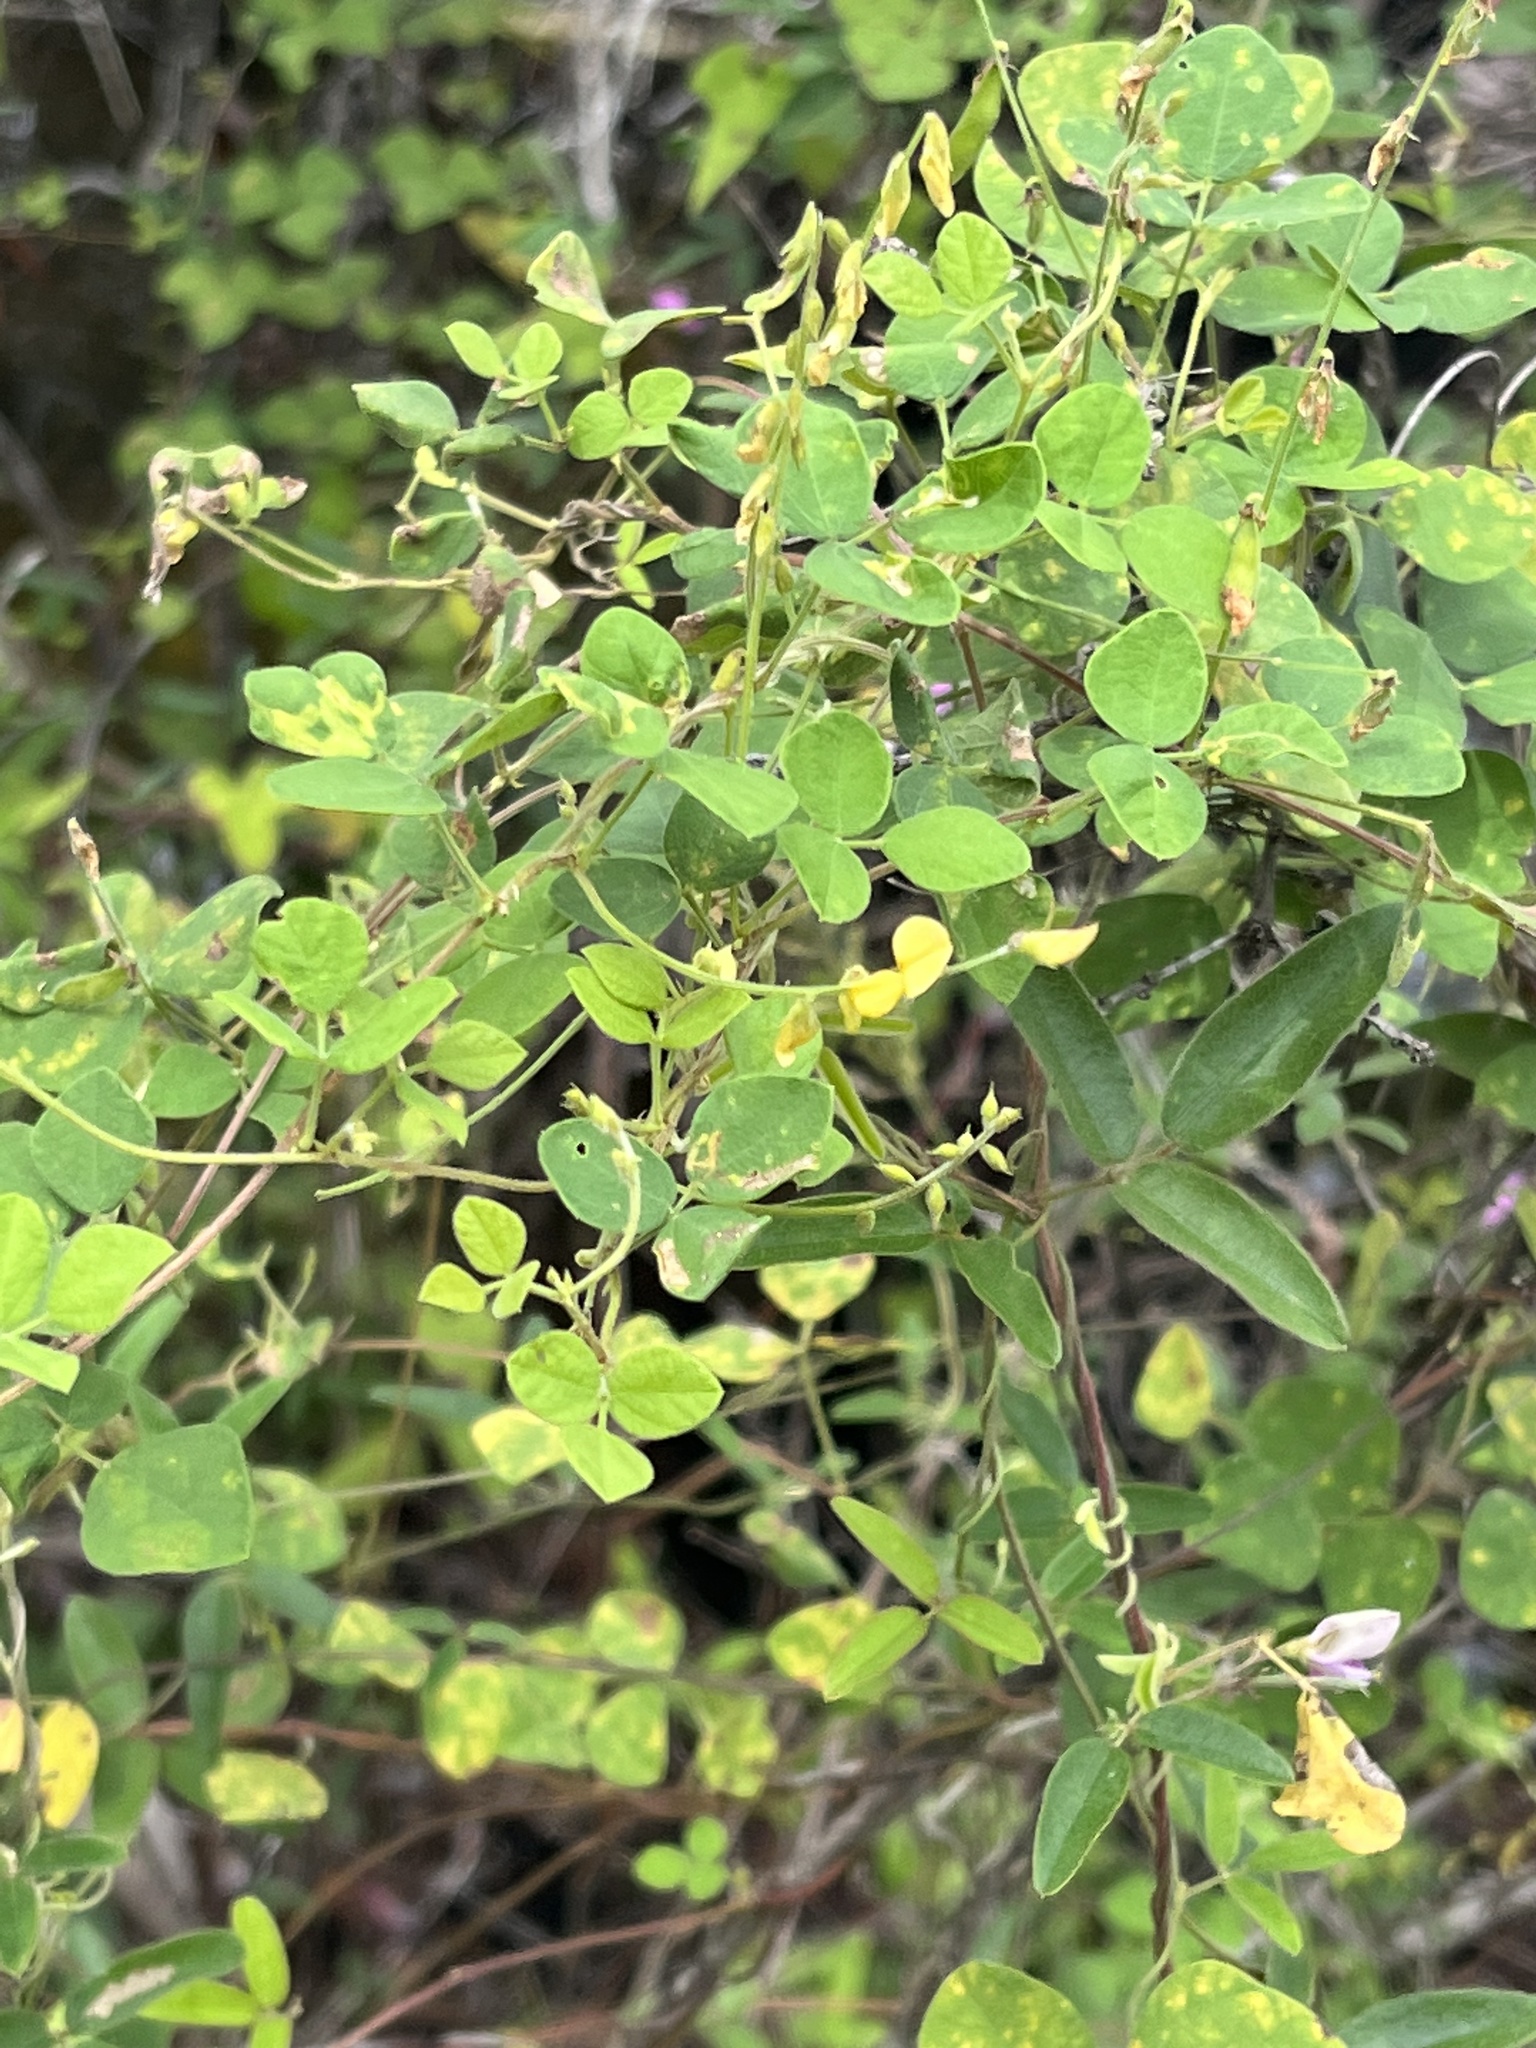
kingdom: Plantae
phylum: Tracheophyta
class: Magnoliopsida
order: Fabales
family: Fabaceae
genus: Rhynchosia
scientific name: Rhynchosia minima
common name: Least snoutbean
